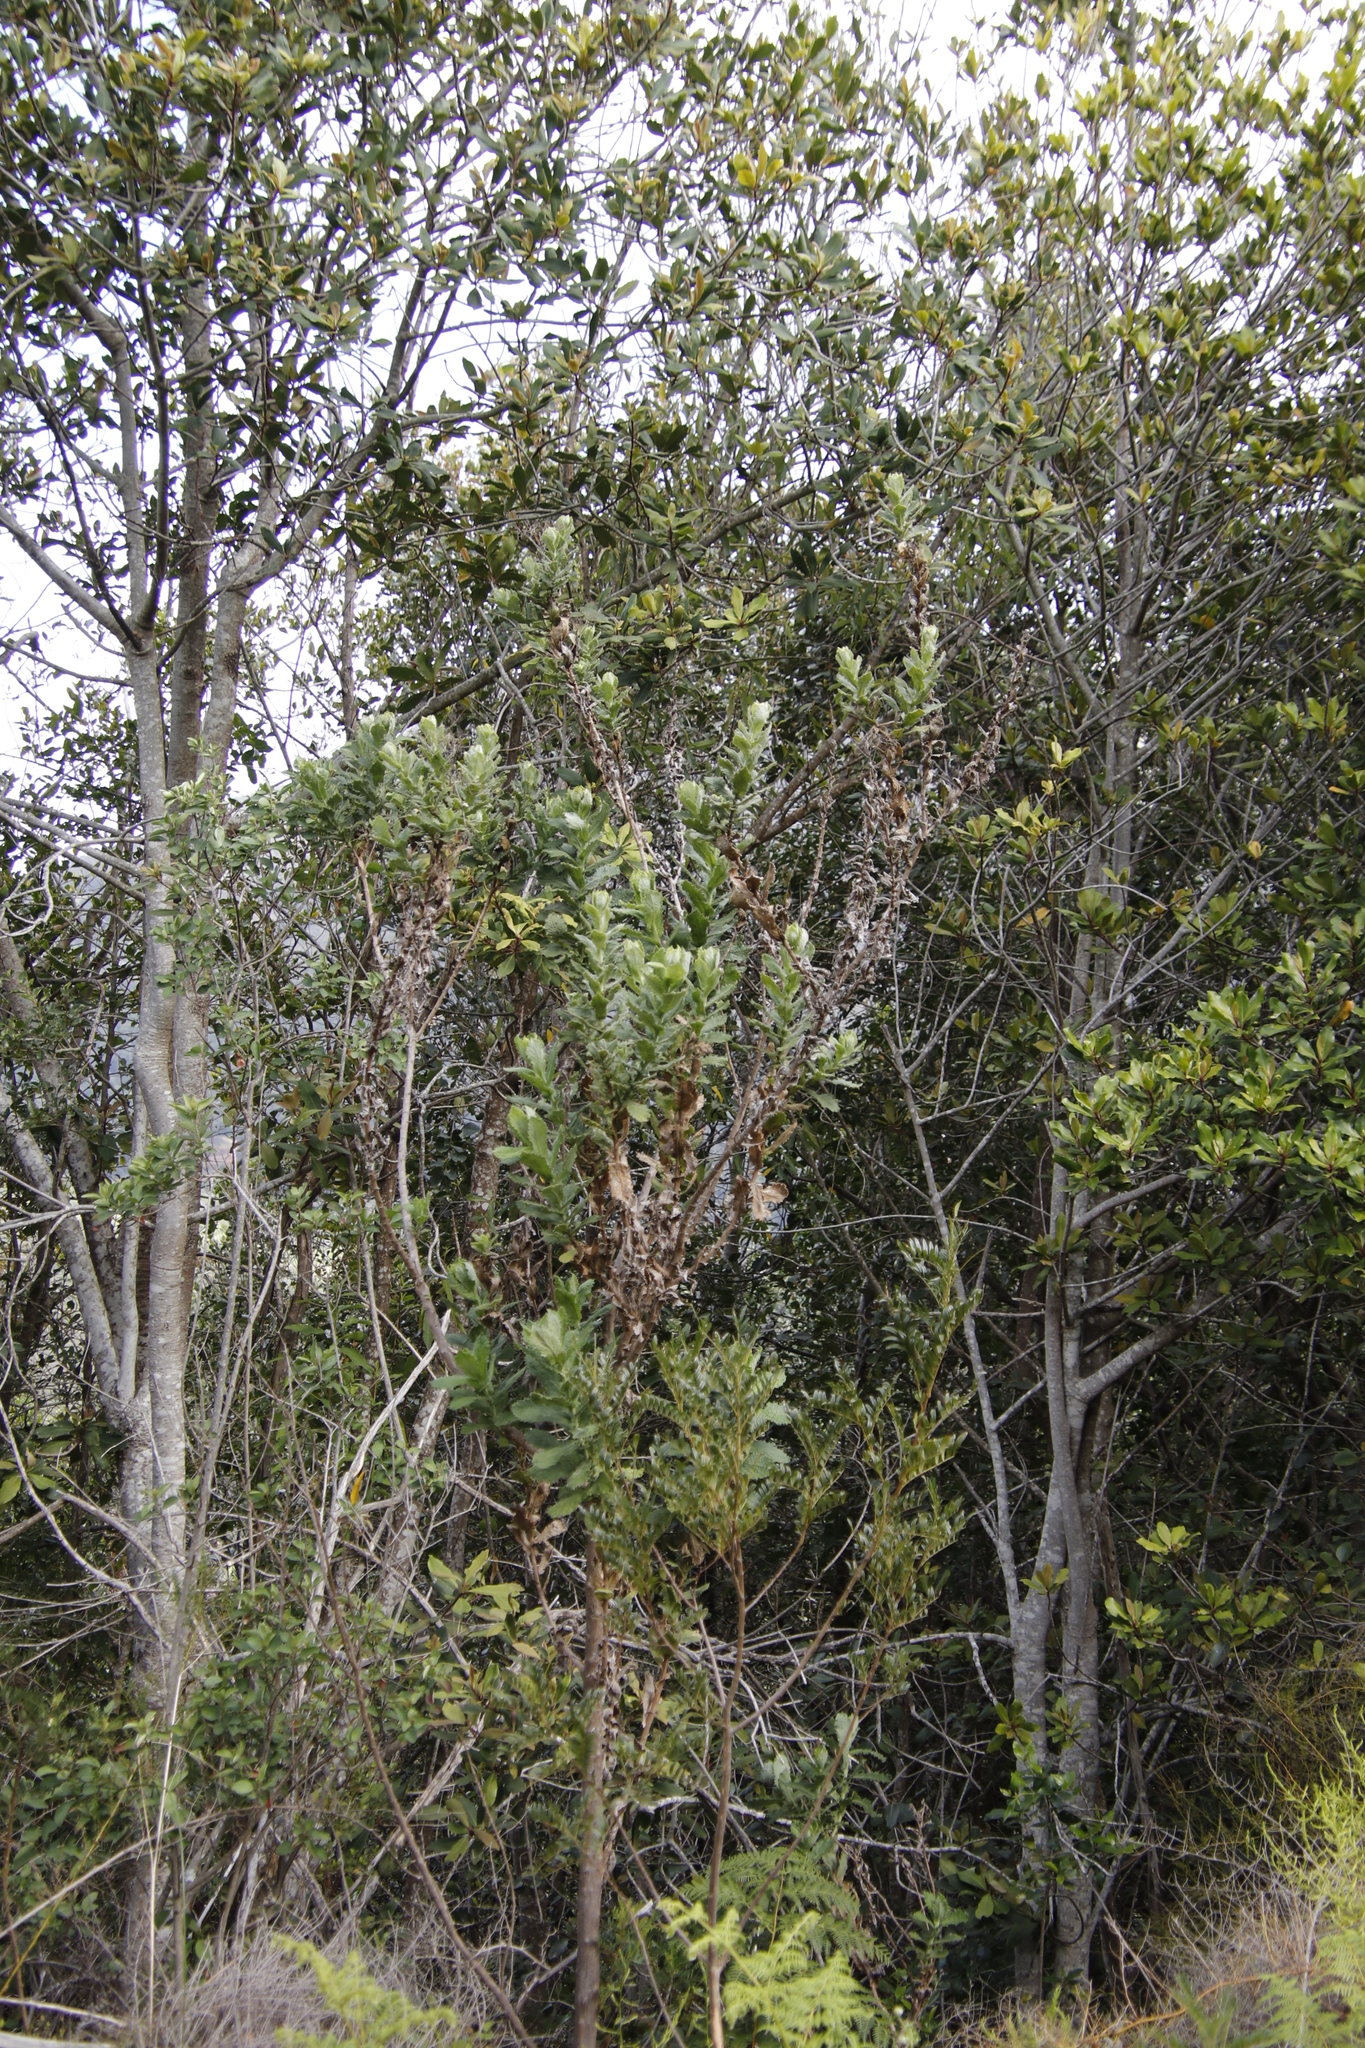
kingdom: Plantae
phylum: Tracheophyta
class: Magnoliopsida
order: Asterales
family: Asteraceae
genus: Senecio
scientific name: Senecio rigidus
